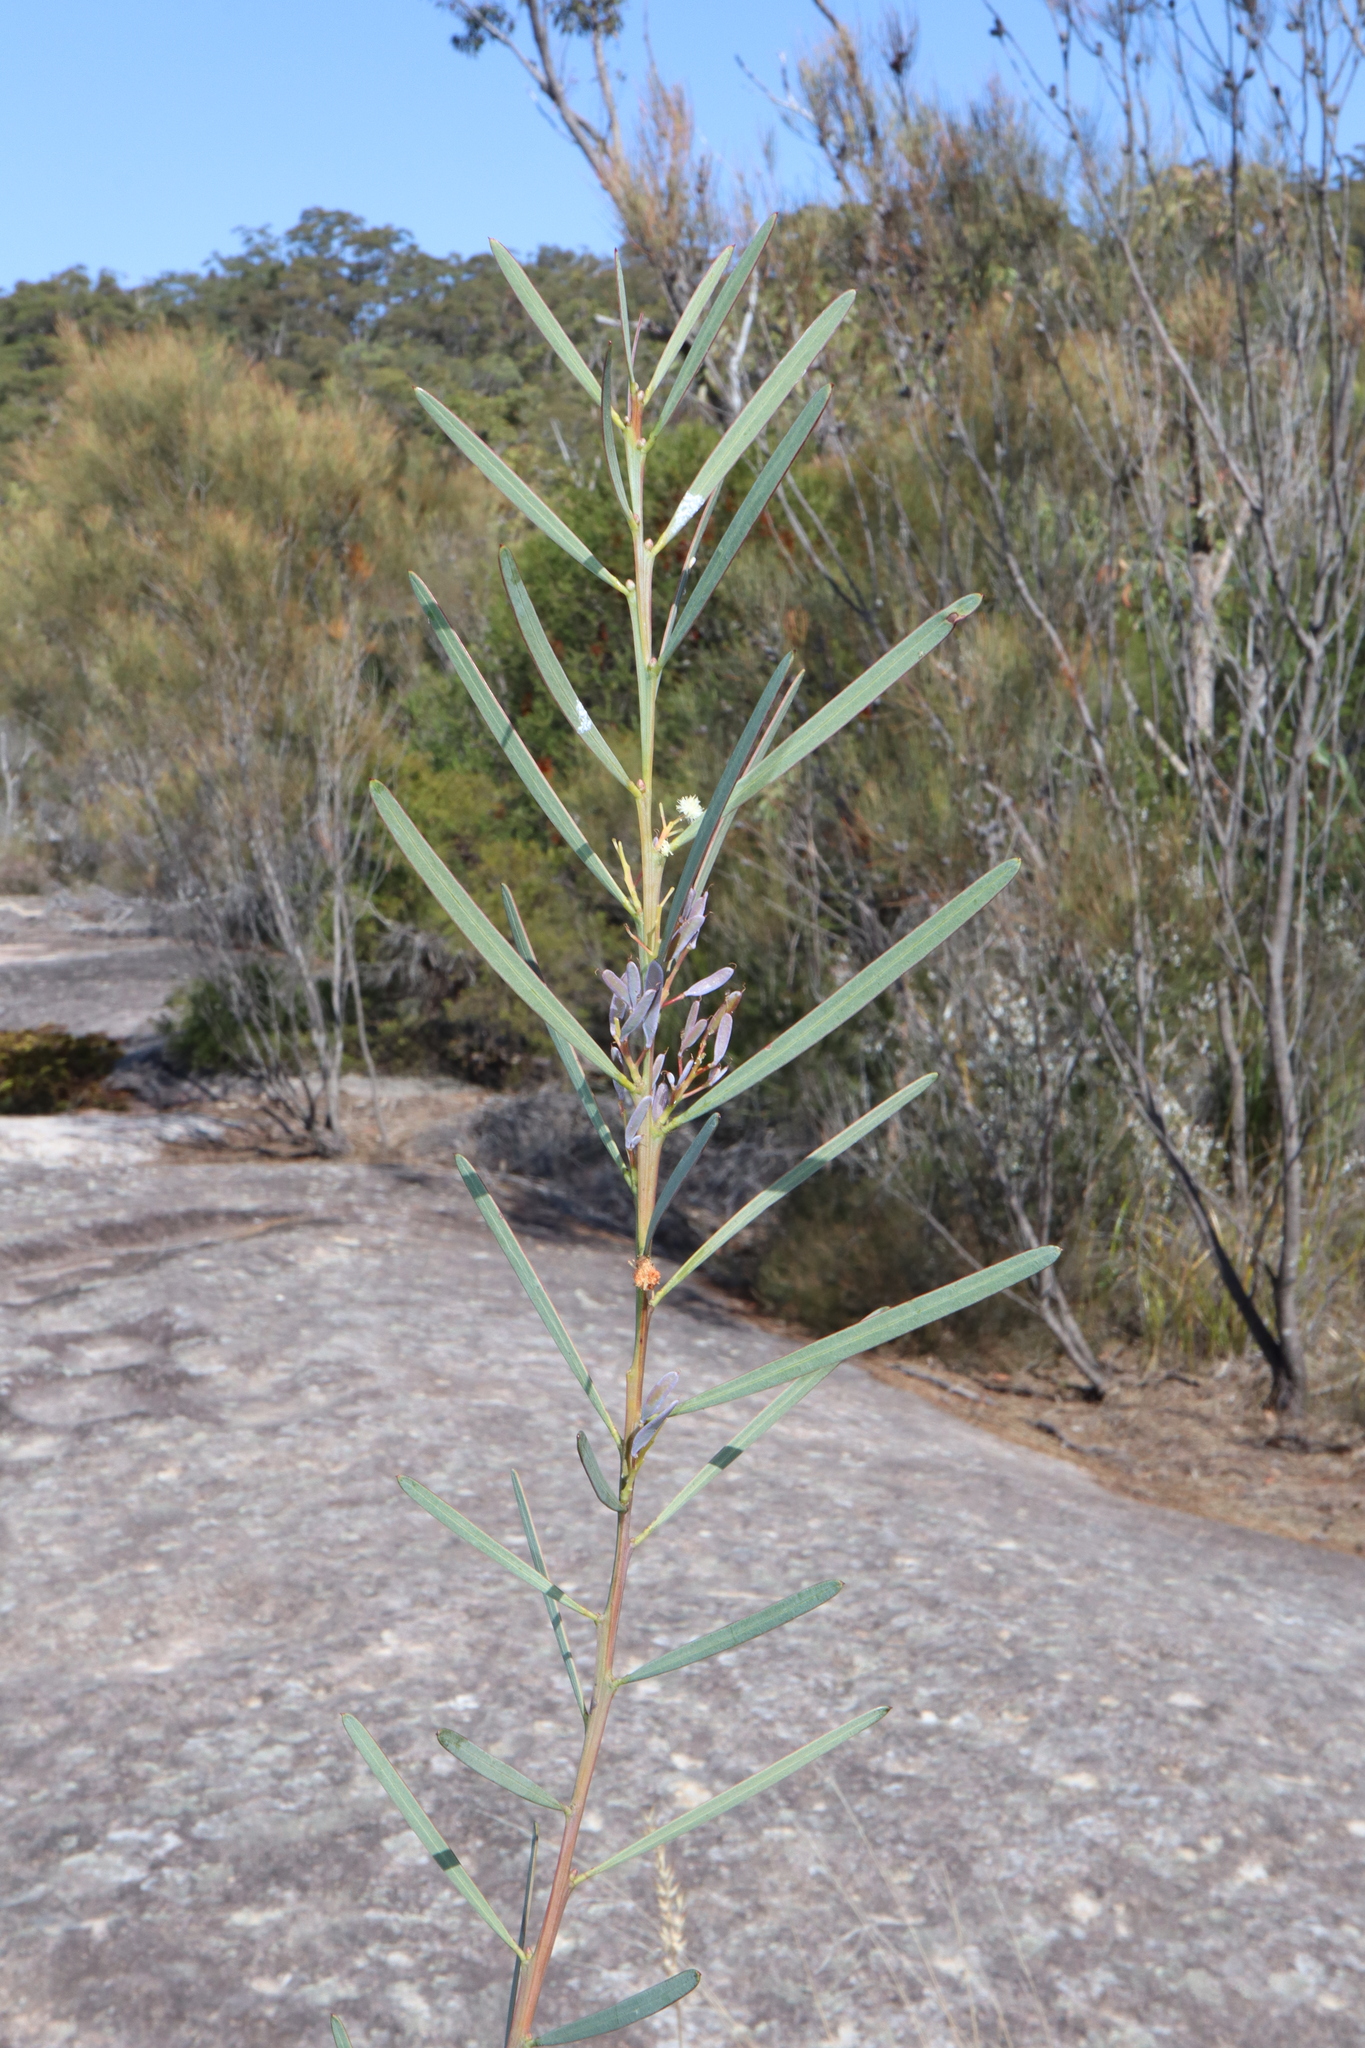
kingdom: Plantae
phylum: Tracheophyta
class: Magnoliopsida
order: Fabales
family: Fabaceae
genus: Acacia
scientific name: Acacia suaveolens
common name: Sweet acacia
